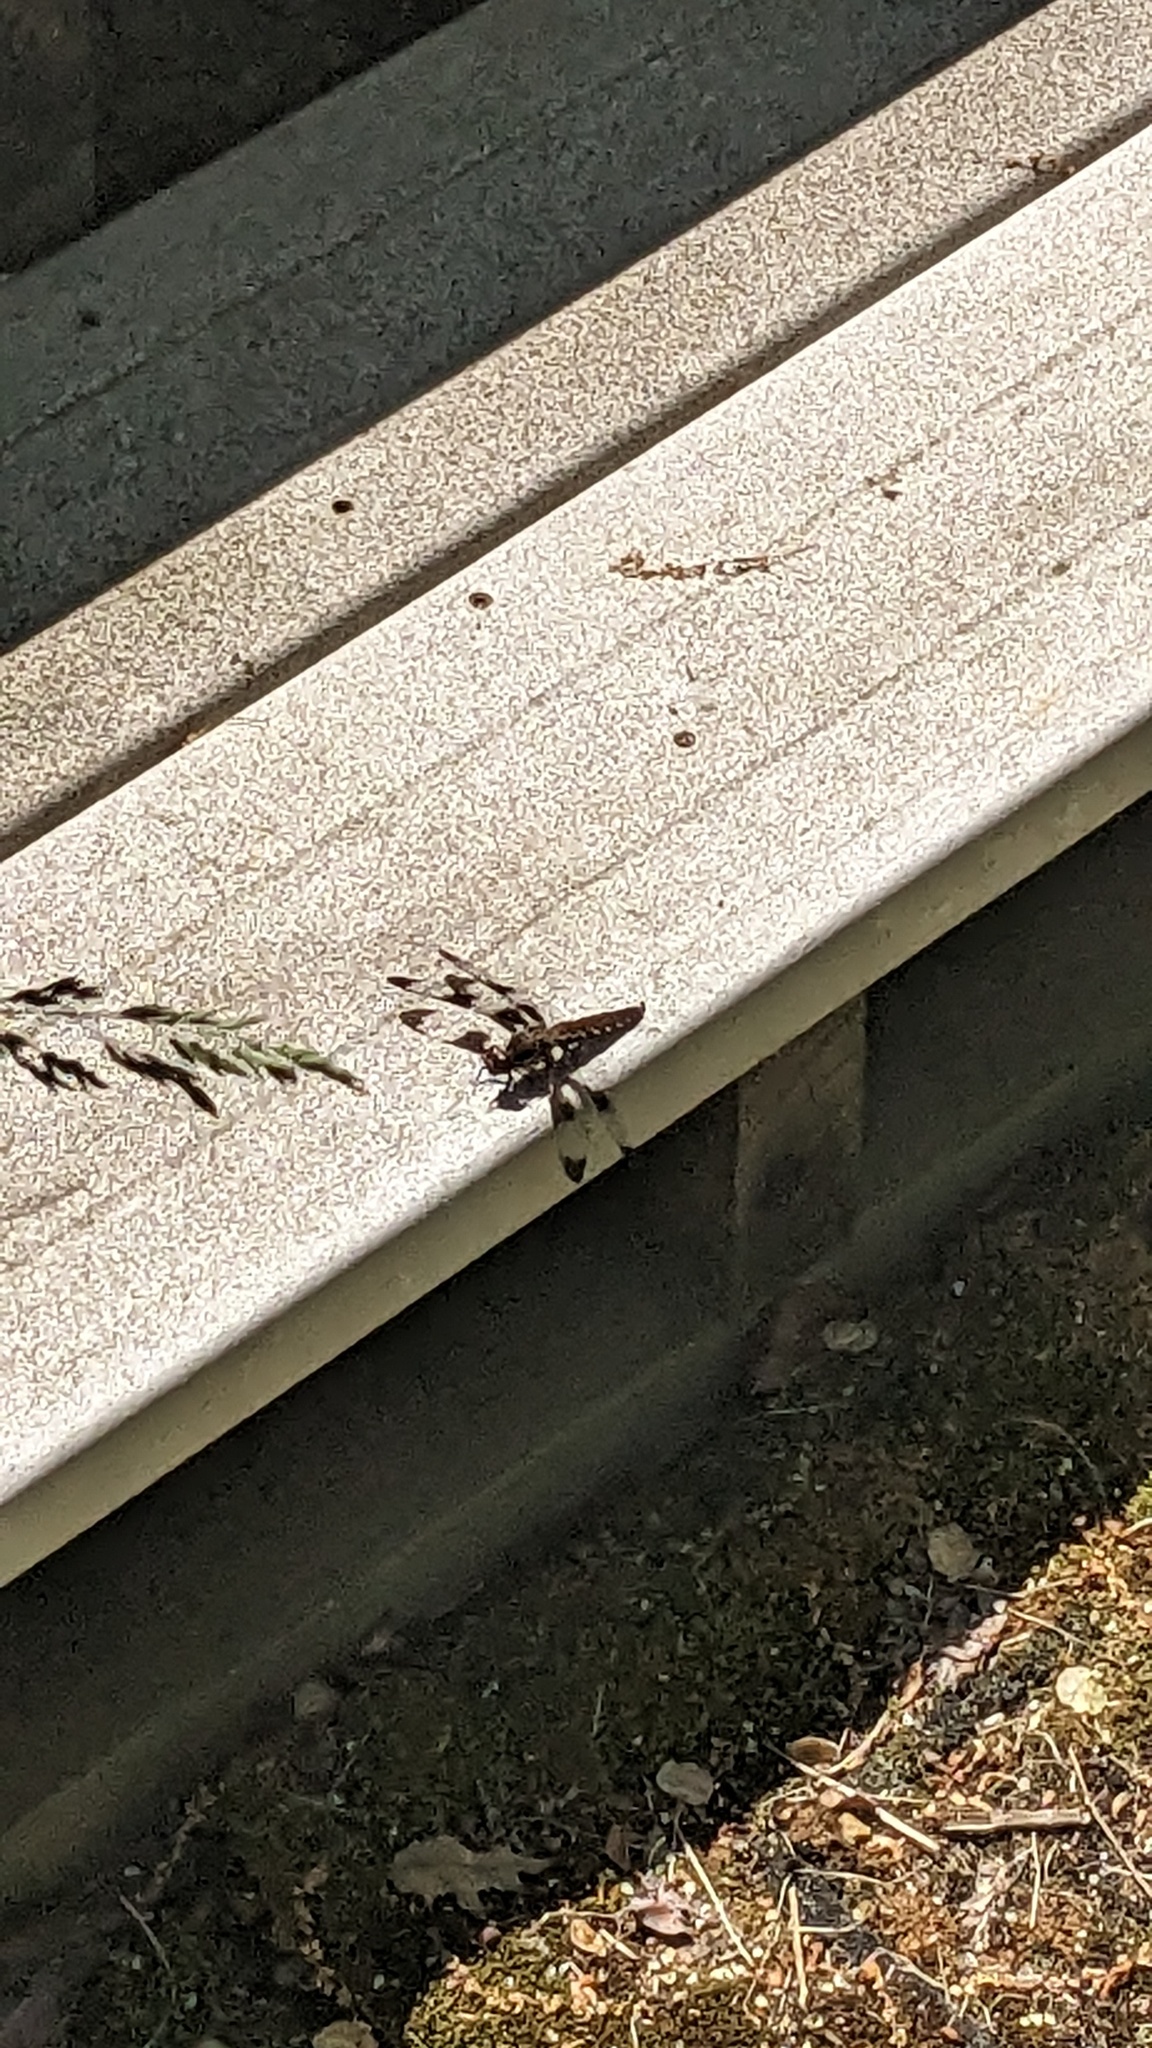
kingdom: Animalia
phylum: Arthropoda
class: Insecta
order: Odonata
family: Libellulidae
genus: Plathemis
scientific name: Plathemis lydia
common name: Common whitetail
